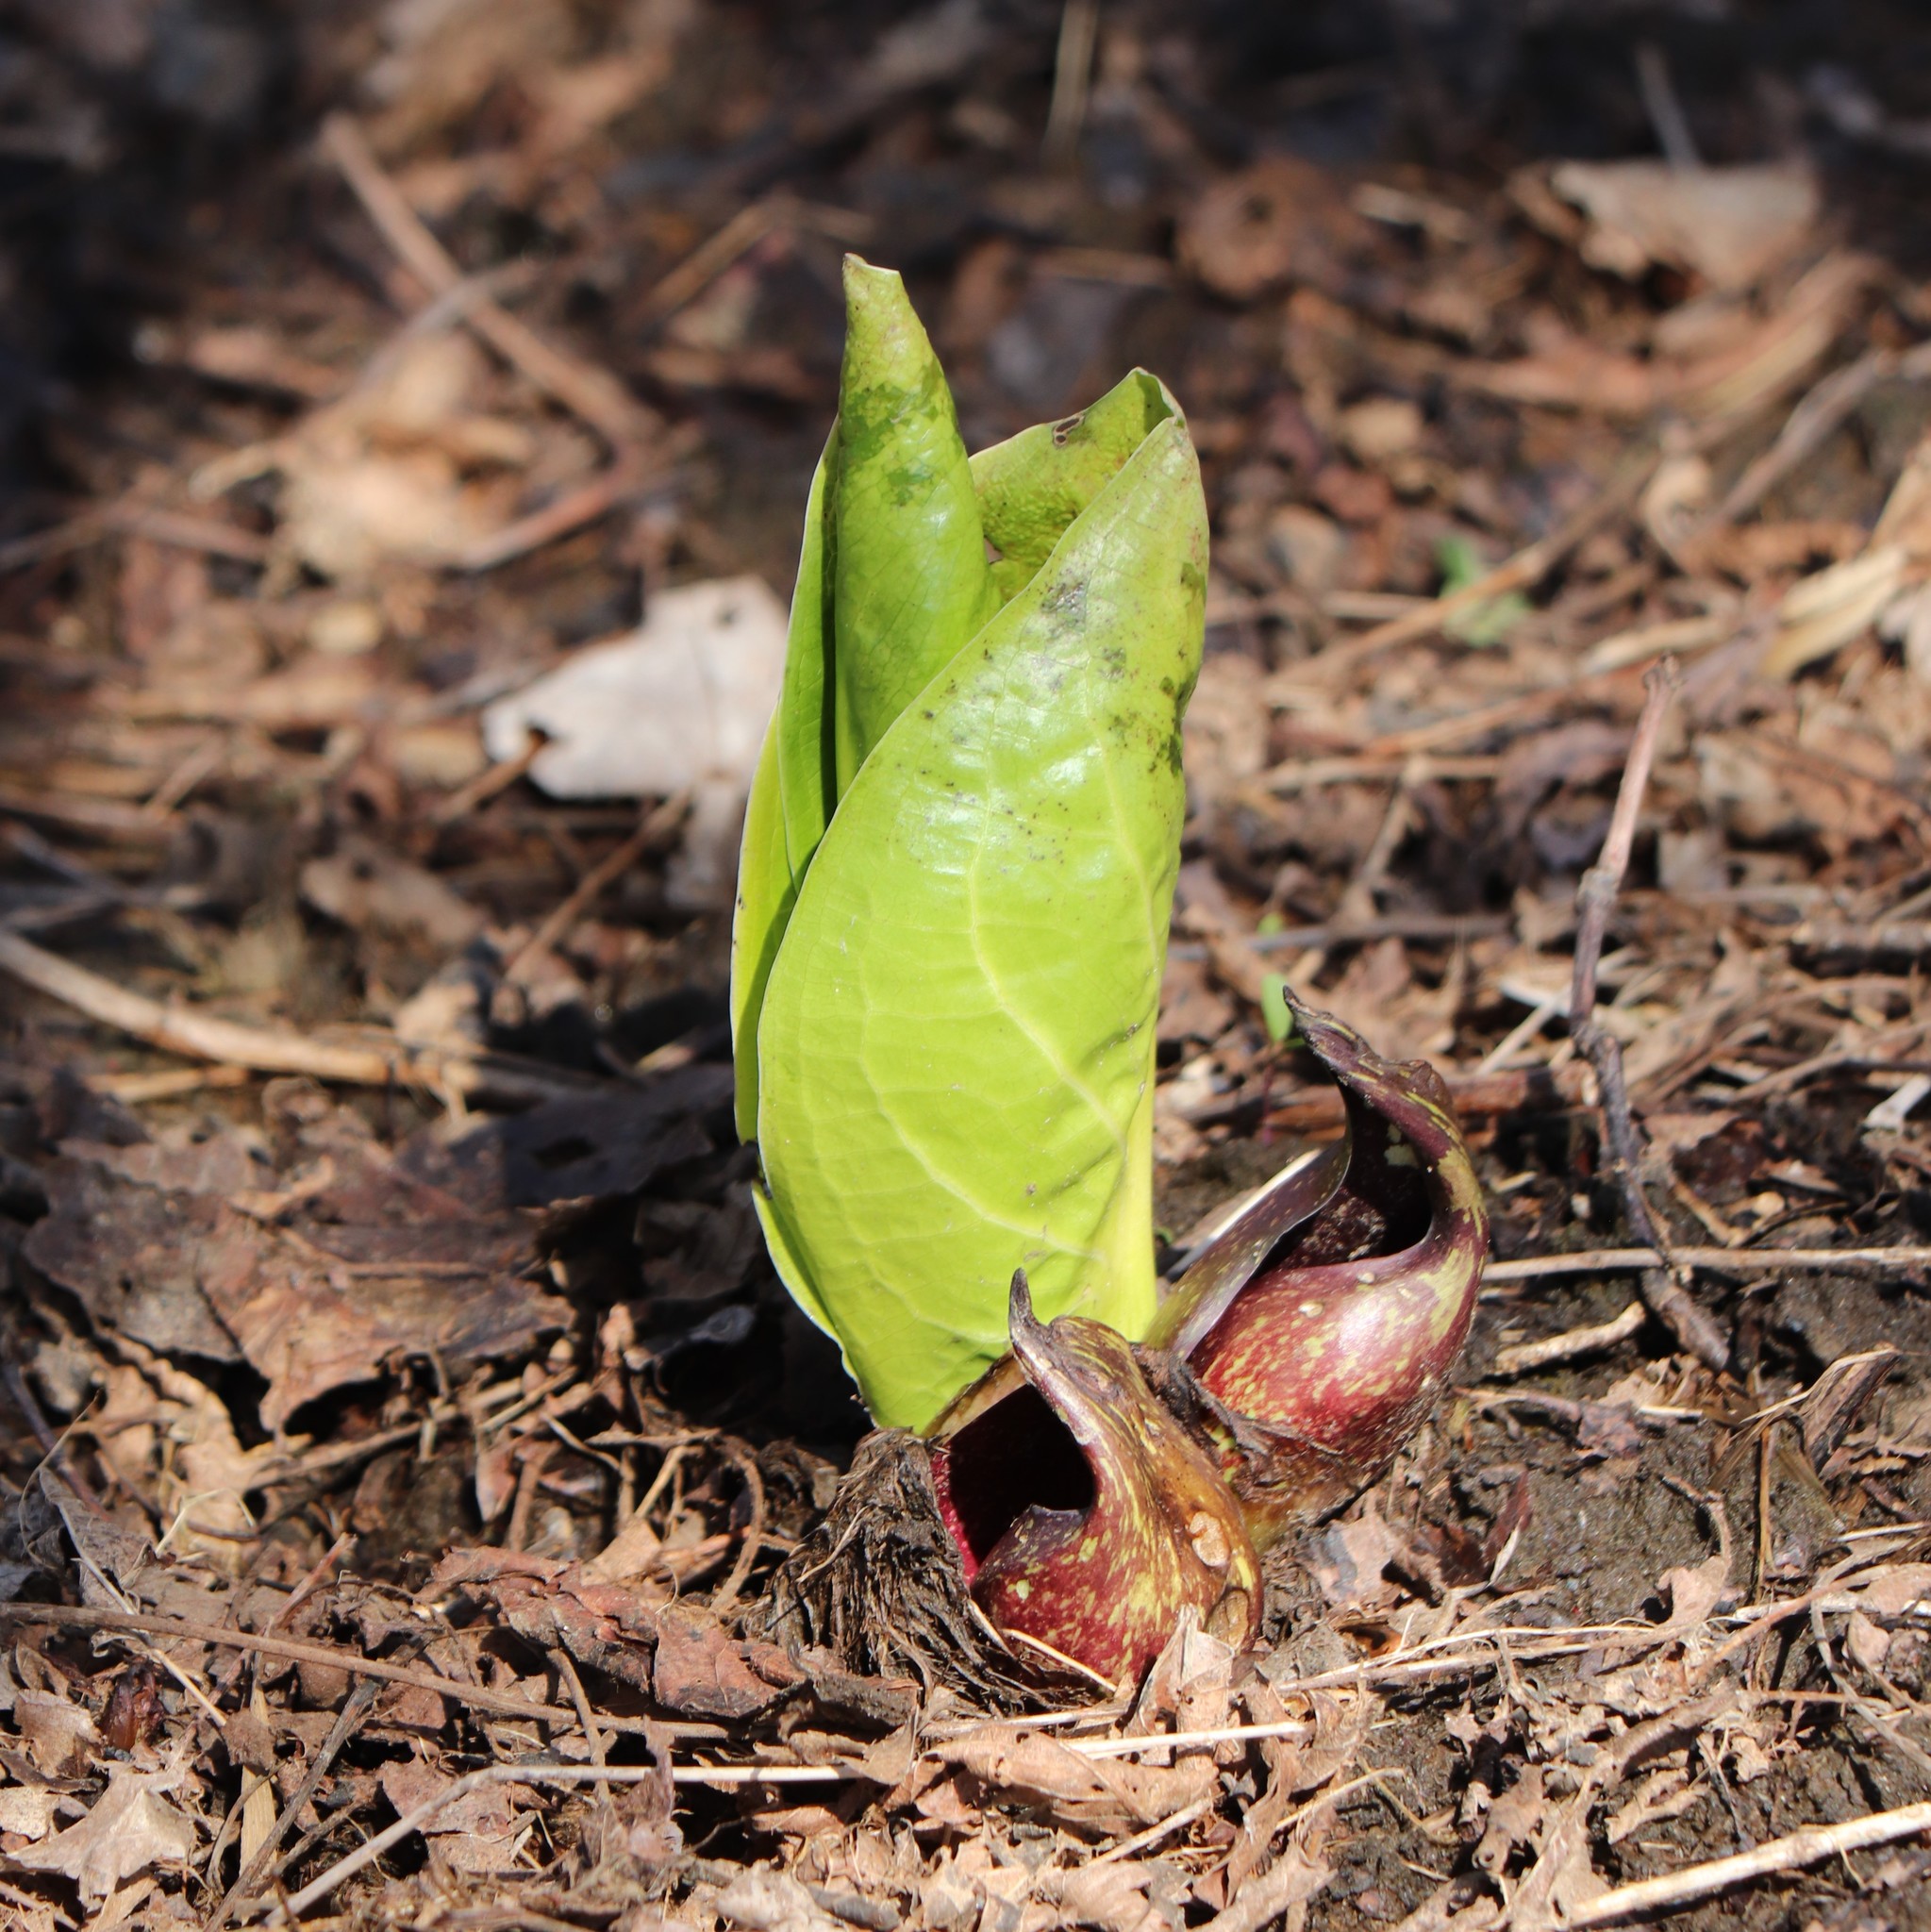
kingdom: Plantae
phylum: Tracheophyta
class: Liliopsida
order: Alismatales
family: Araceae
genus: Symplocarpus
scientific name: Symplocarpus foetidus
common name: Eastern skunk cabbage
